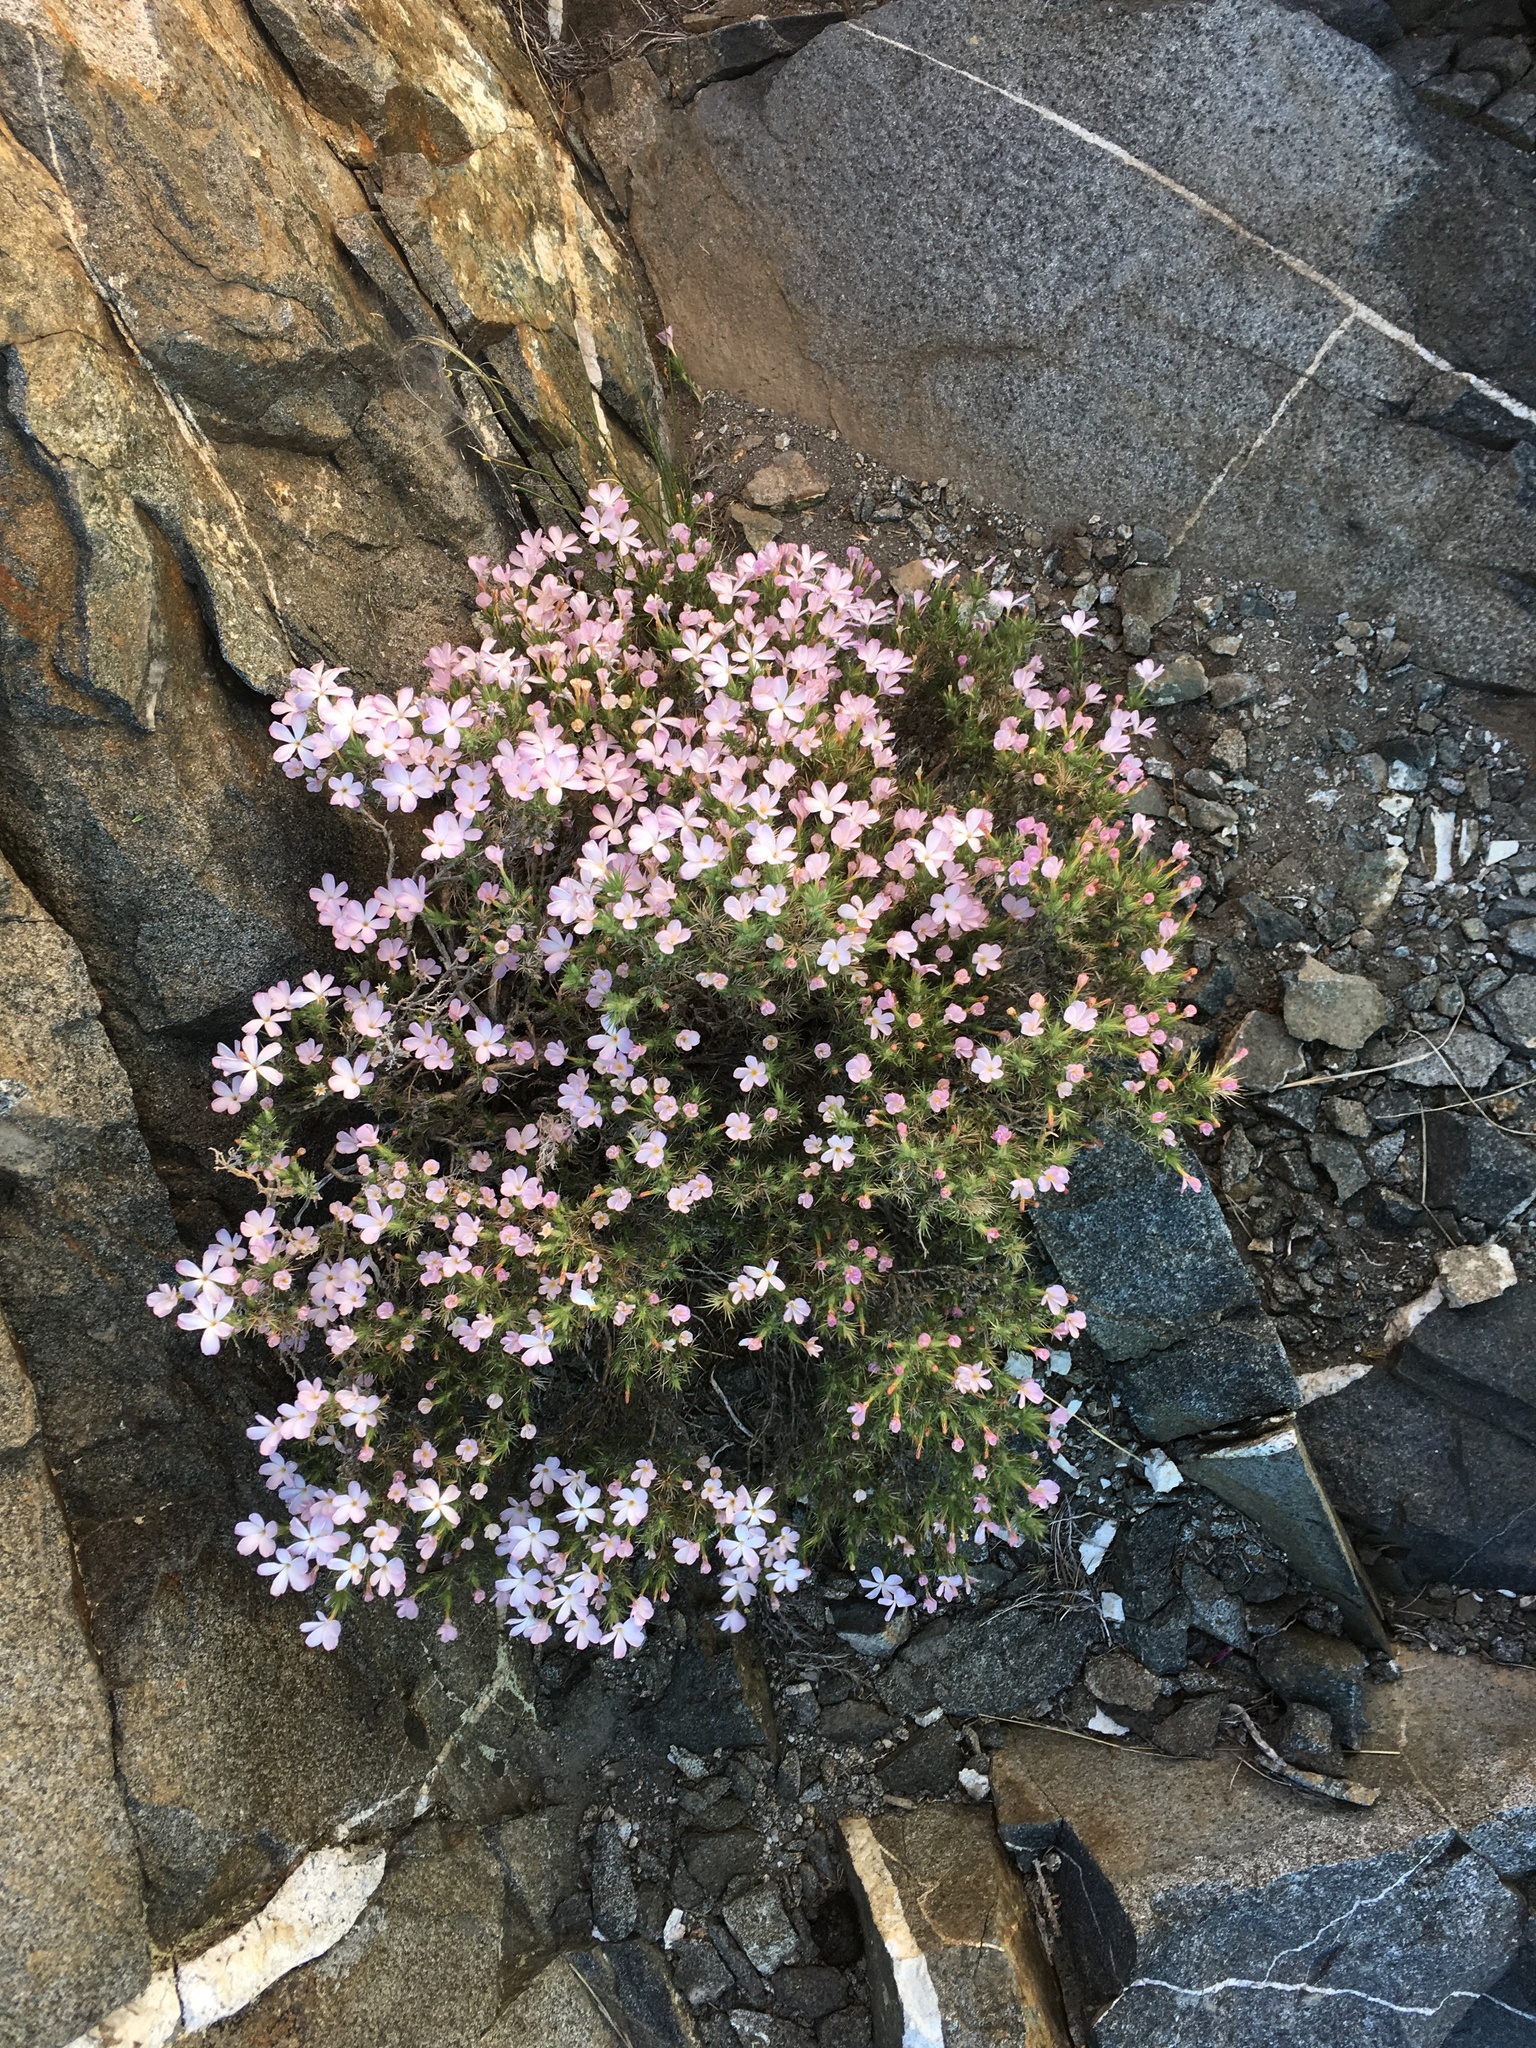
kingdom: Plantae
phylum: Tracheophyta
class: Magnoliopsida
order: Ericales
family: Polemoniaceae
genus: Linanthus
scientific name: Linanthus pungens
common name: Granite prickly phlox
